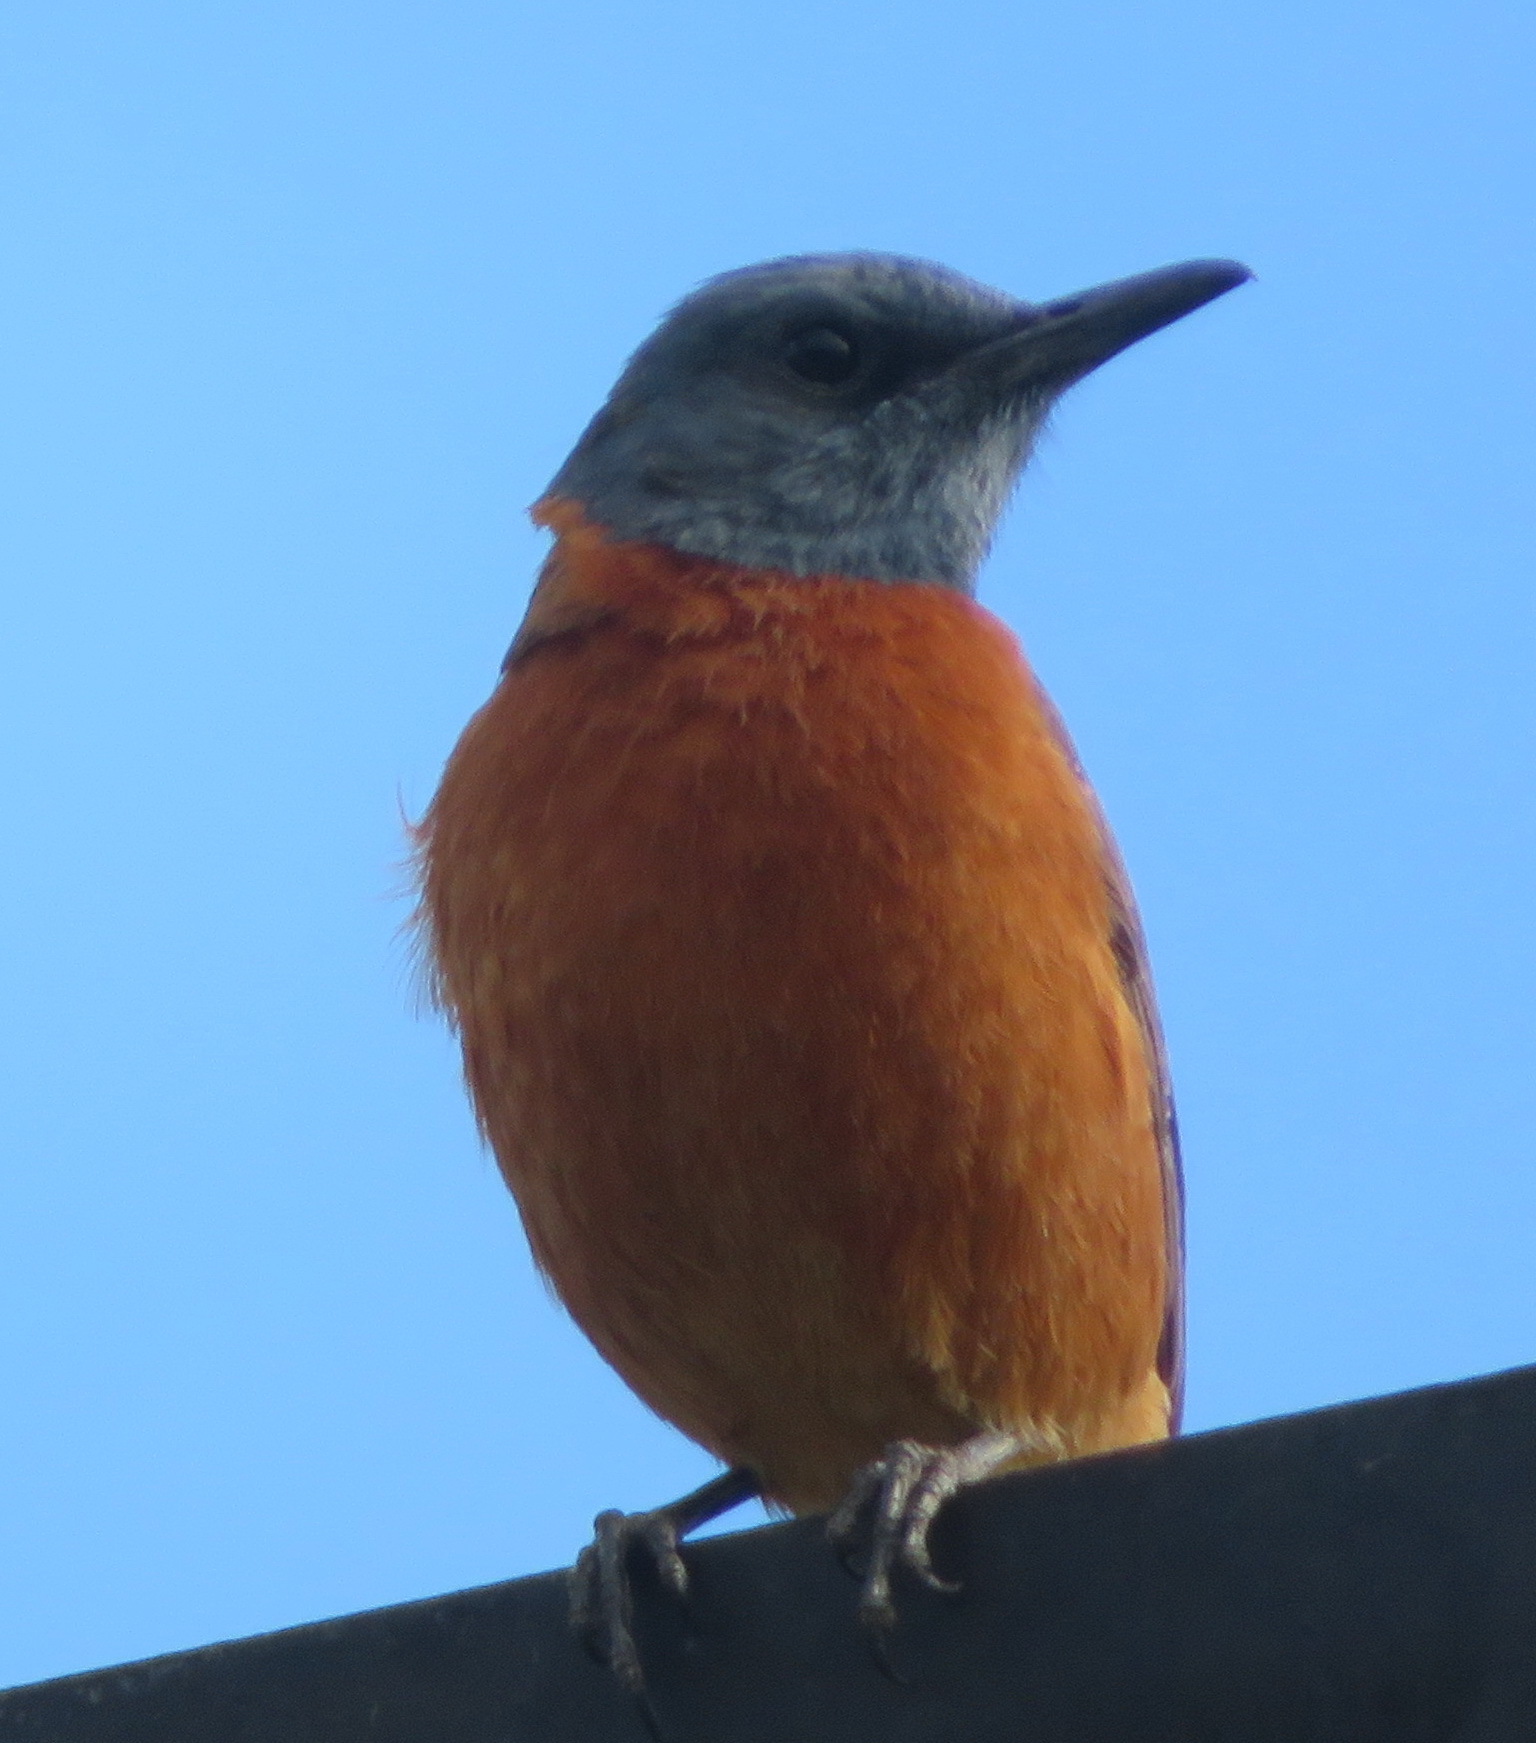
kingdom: Animalia
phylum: Chordata
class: Aves
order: Passeriformes
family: Muscicapidae
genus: Monticola
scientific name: Monticola rupestris
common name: Cape rock thrush
